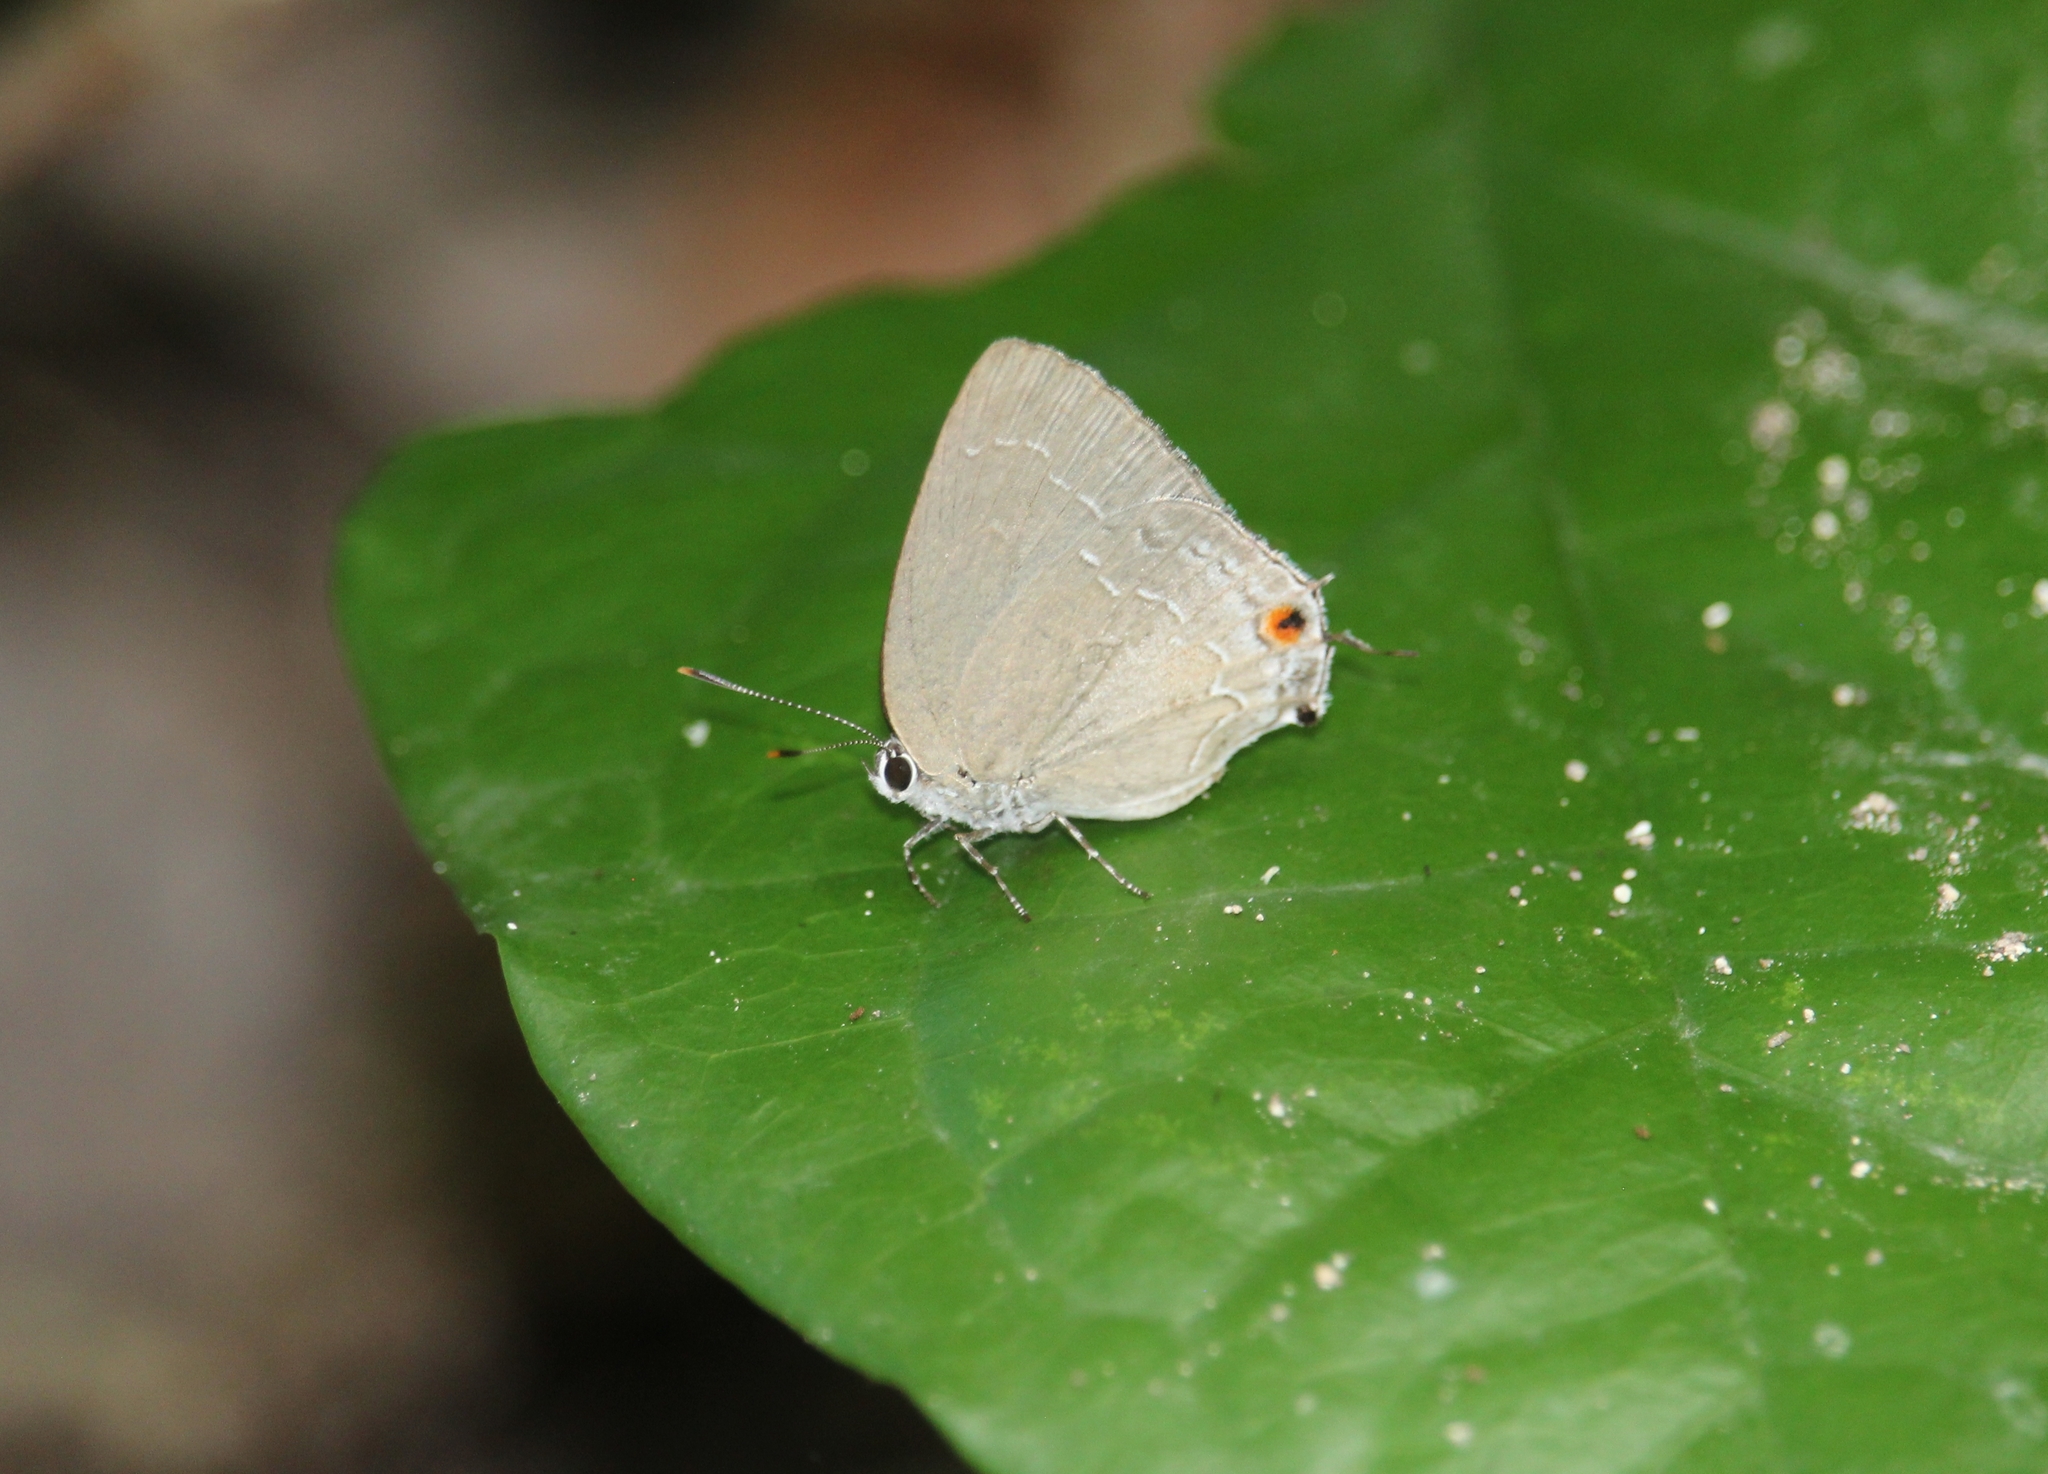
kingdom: Animalia
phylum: Arthropoda
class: Insecta
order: Lepidoptera
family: Lycaenidae
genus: Strephonota
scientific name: Strephonota tephraeus
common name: Pearly-gray hairstreak
